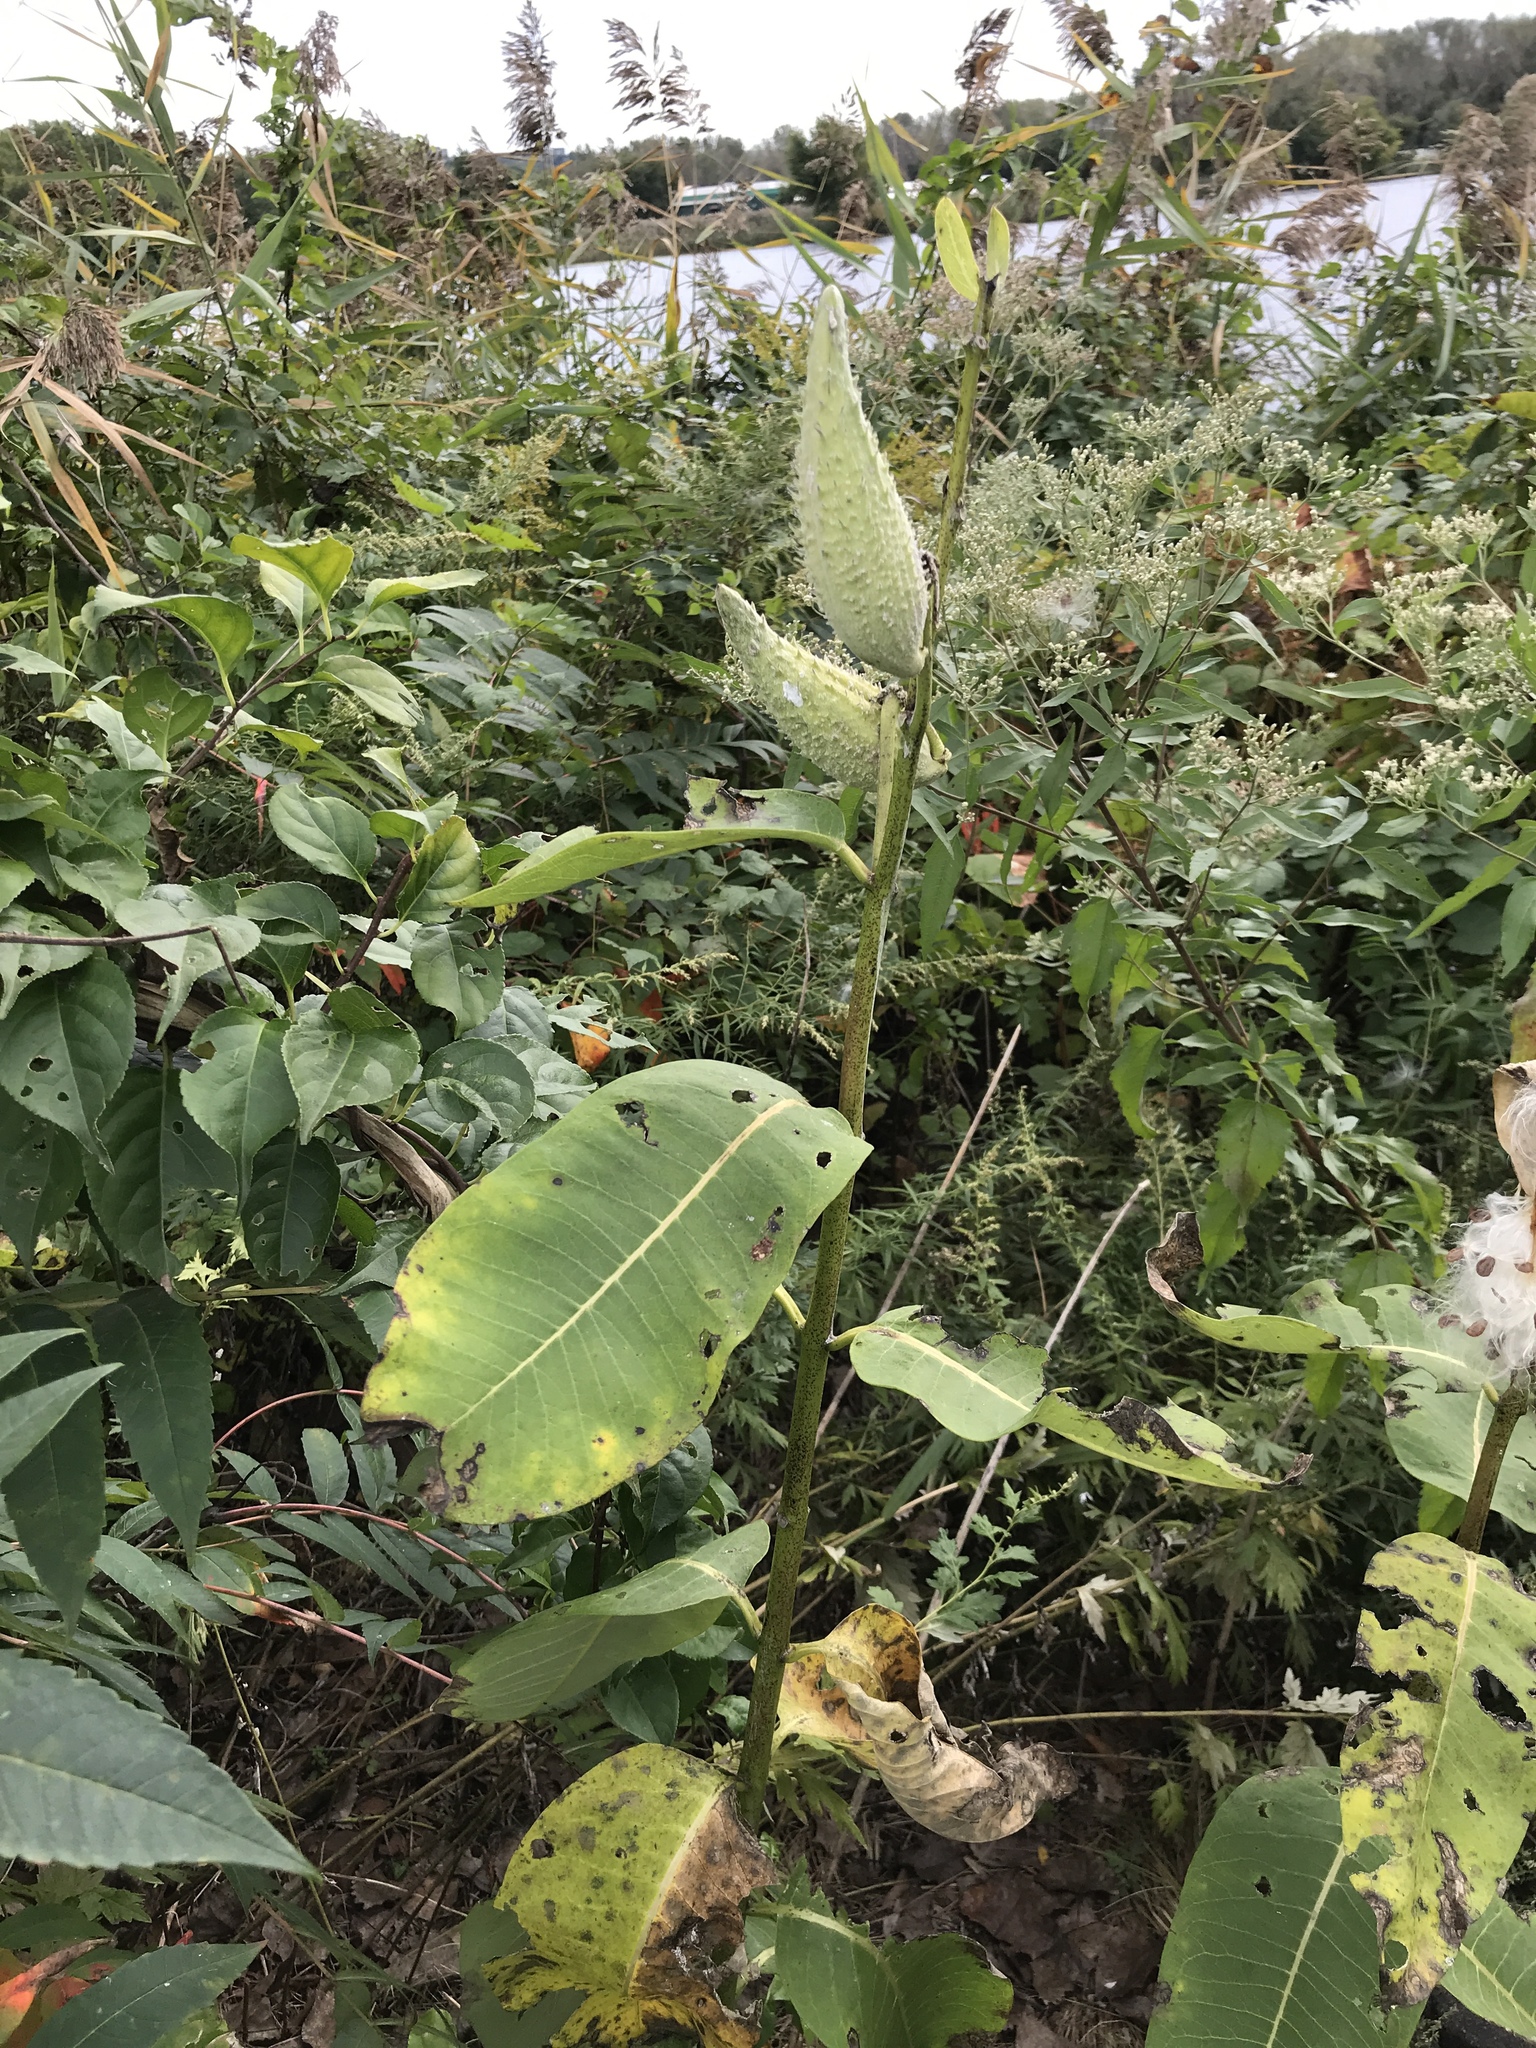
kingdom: Plantae
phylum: Tracheophyta
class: Magnoliopsida
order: Gentianales
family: Apocynaceae
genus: Asclepias
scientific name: Asclepias syriaca
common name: Common milkweed
